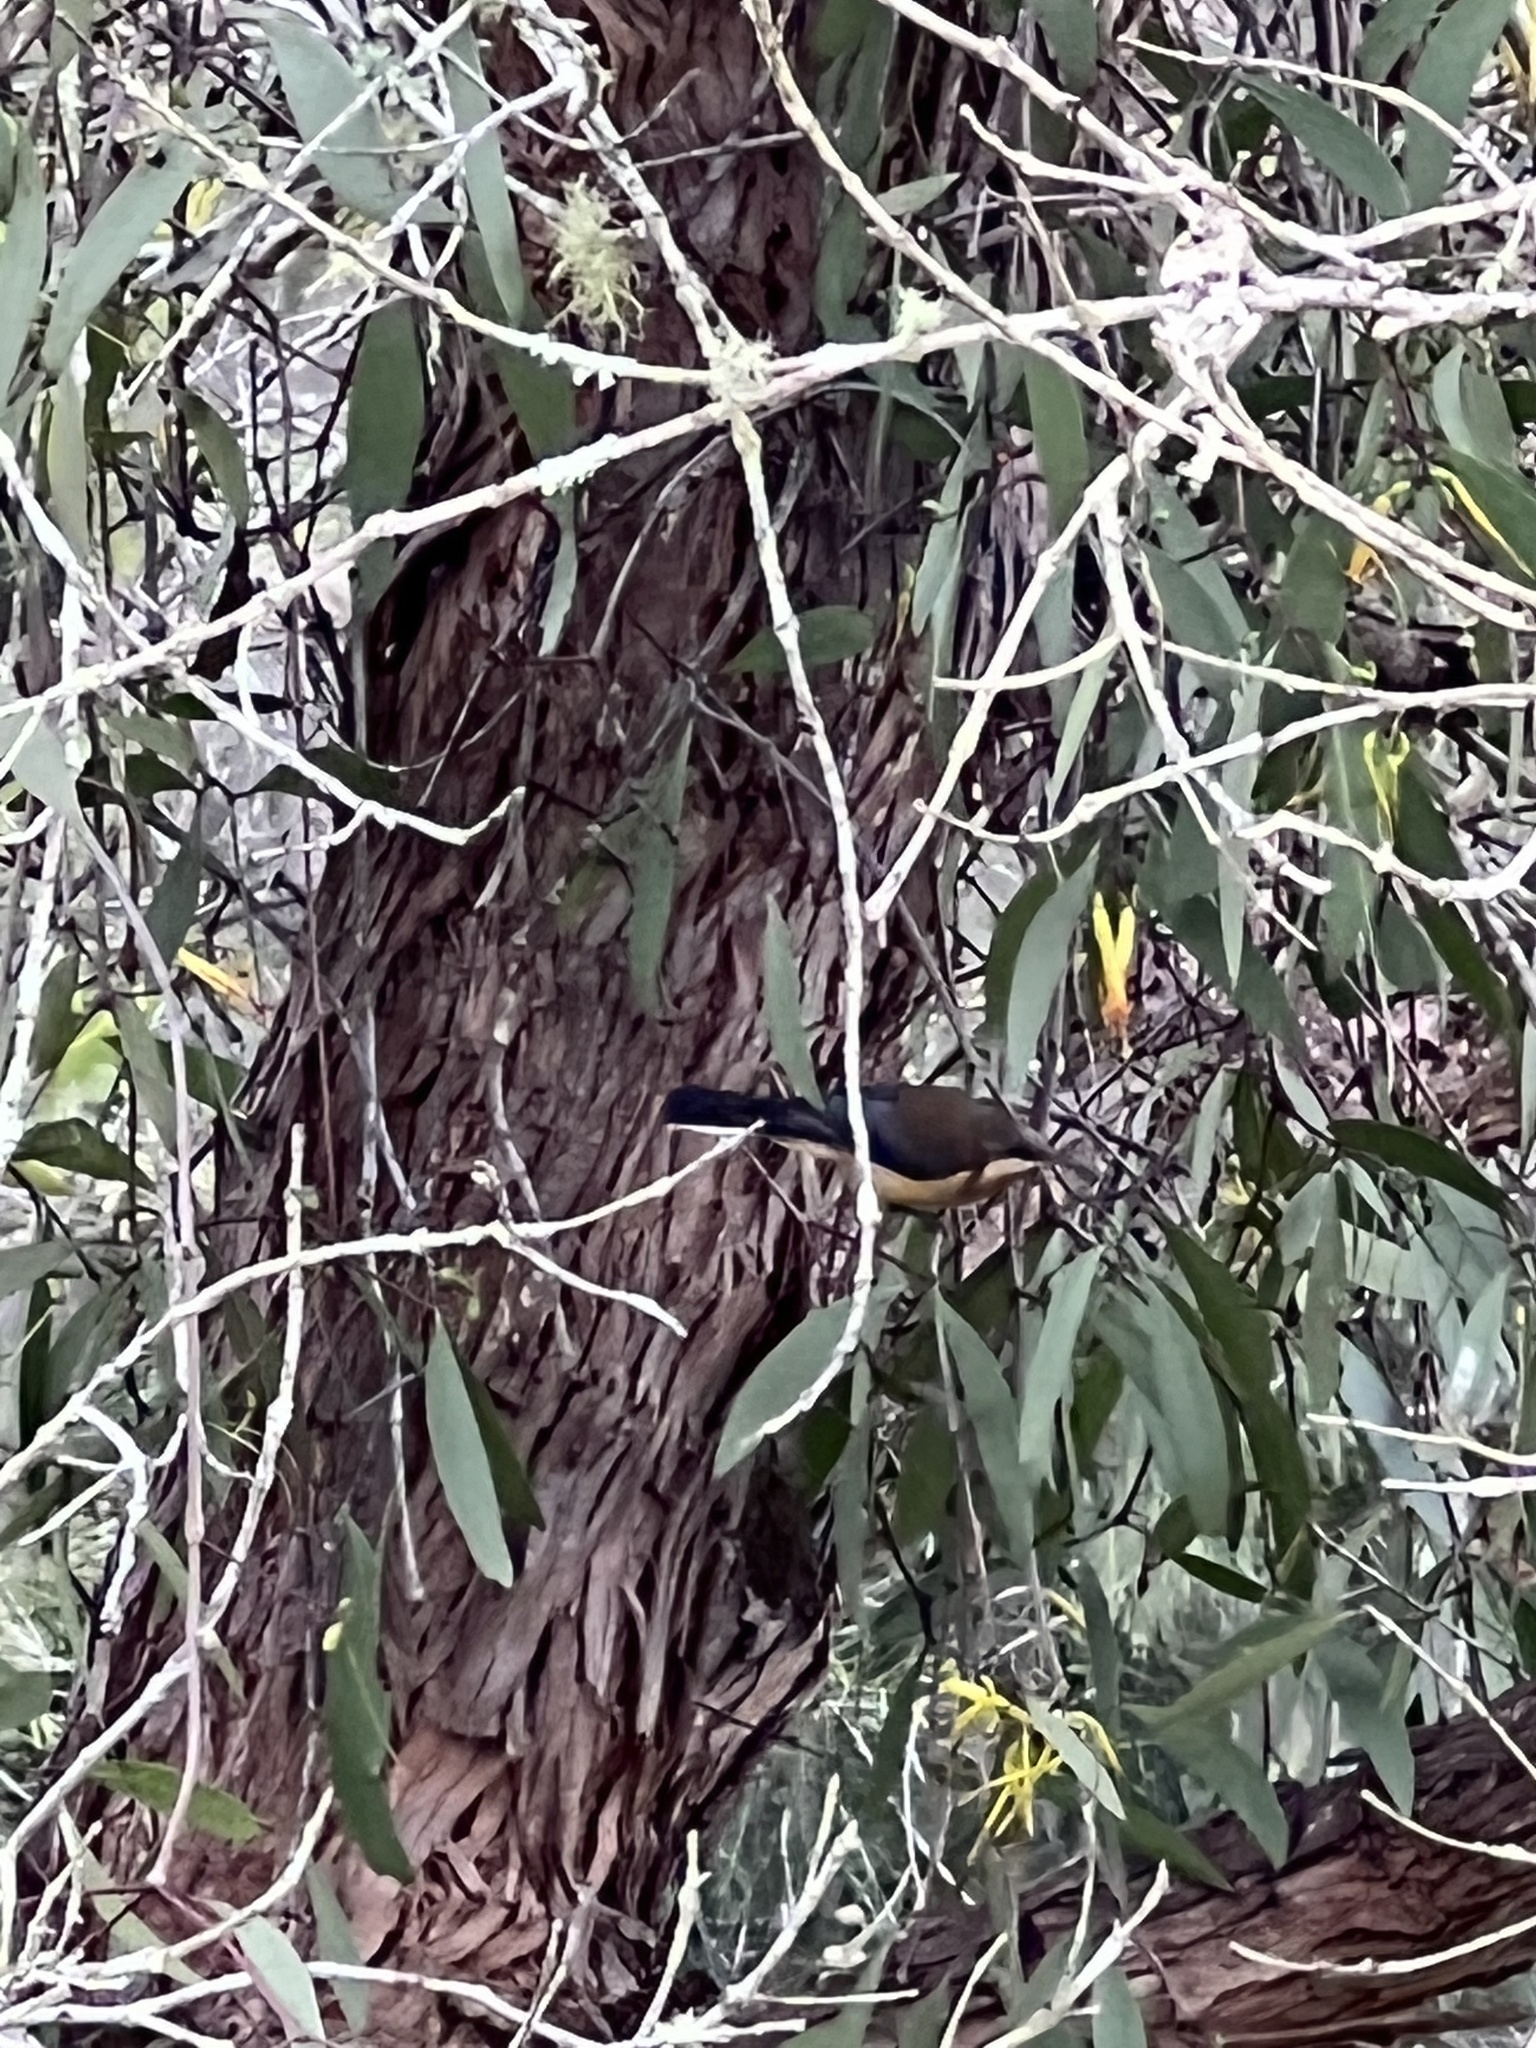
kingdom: Animalia
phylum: Chordata
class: Aves
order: Passeriformes
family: Meliphagidae
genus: Acanthorhynchus
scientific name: Acanthorhynchus tenuirostris
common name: Eastern spinebill
